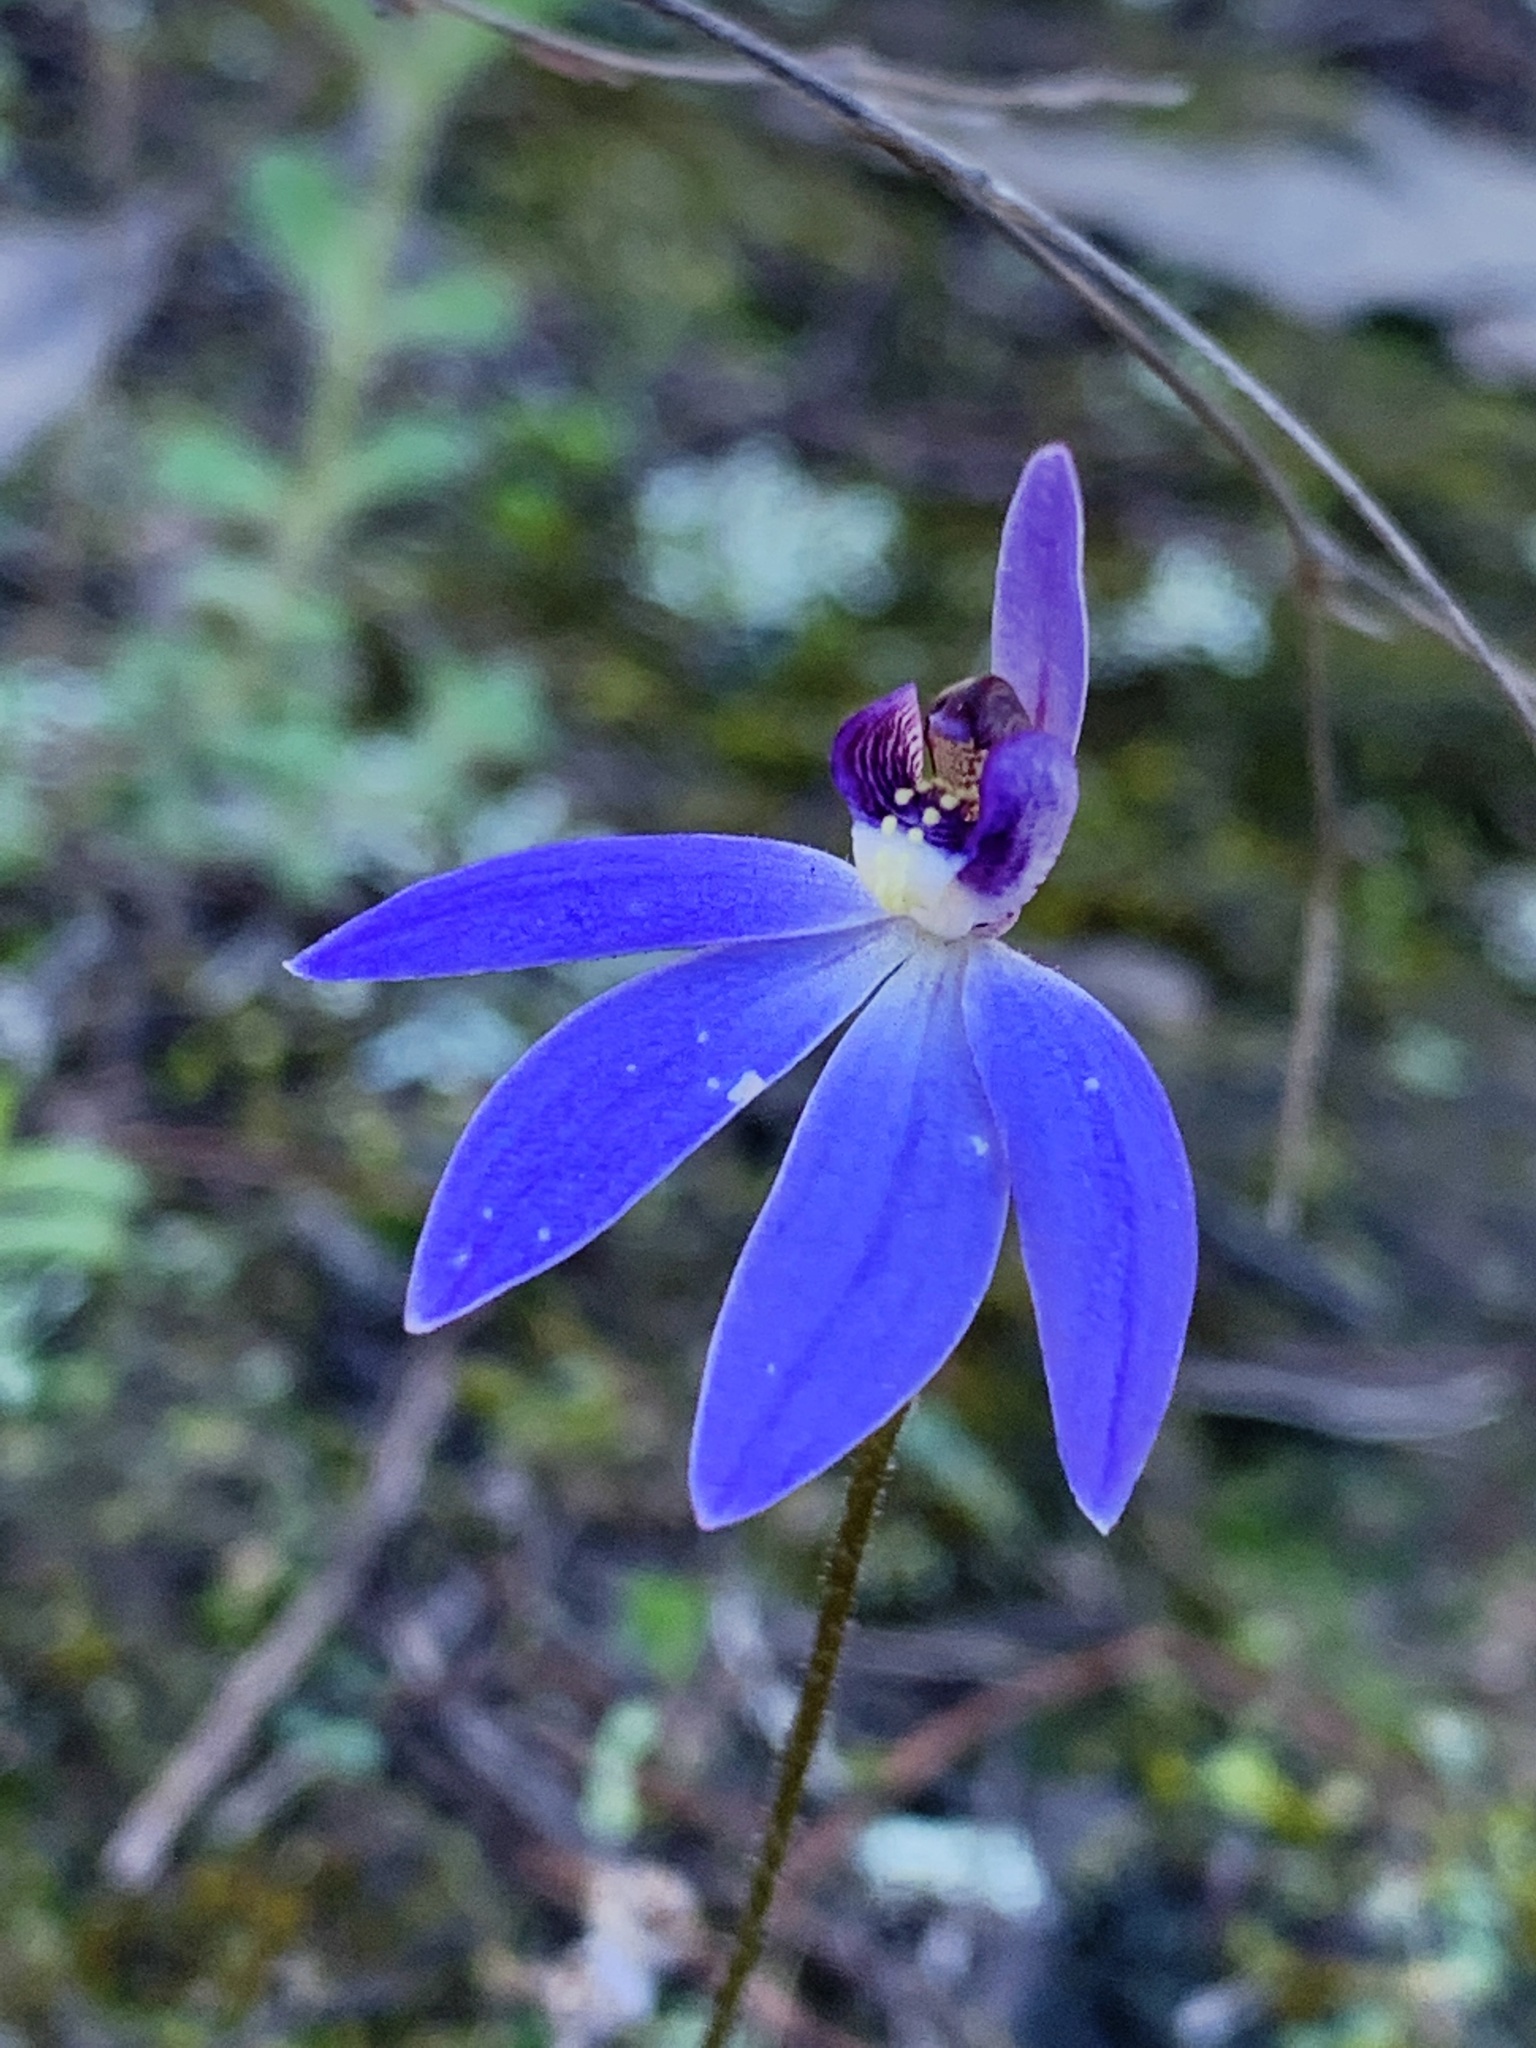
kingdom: Plantae
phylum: Tracheophyta
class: Liliopsida
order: Asparagales
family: Orchidaceae
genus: Caladenia
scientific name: Caladenia caerulea
